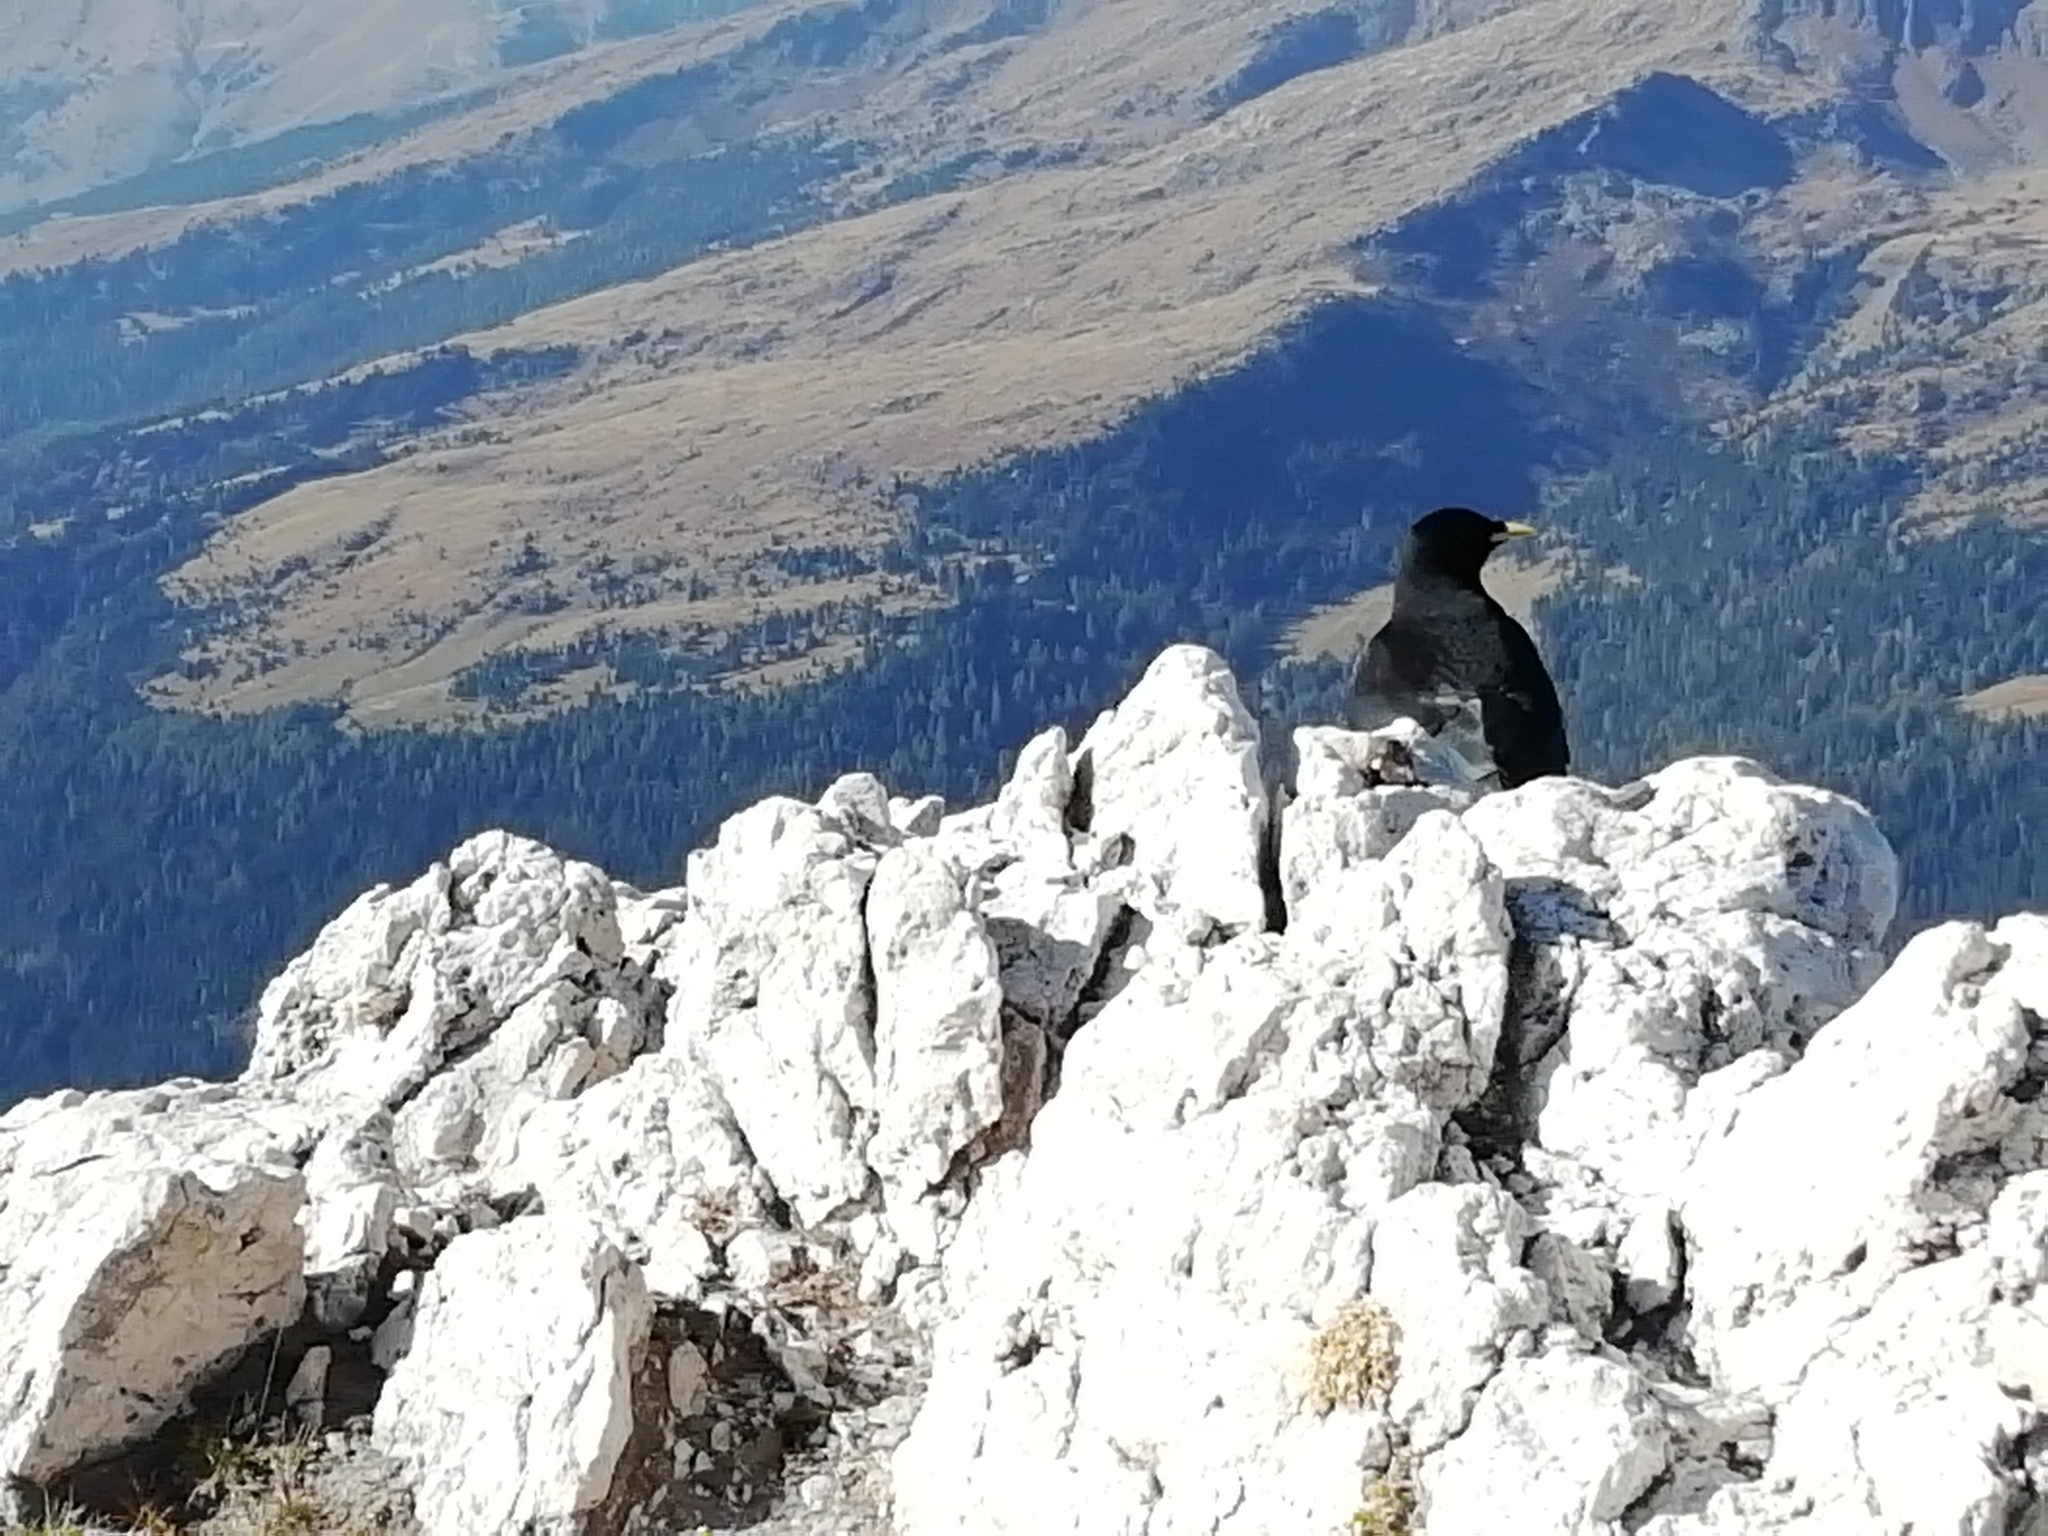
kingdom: Animalia
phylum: Chordata
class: Aves
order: Passeriformes
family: Corvidae
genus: Pyrrhocorax
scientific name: Pyrrhocorax graculus
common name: Alpine chough
